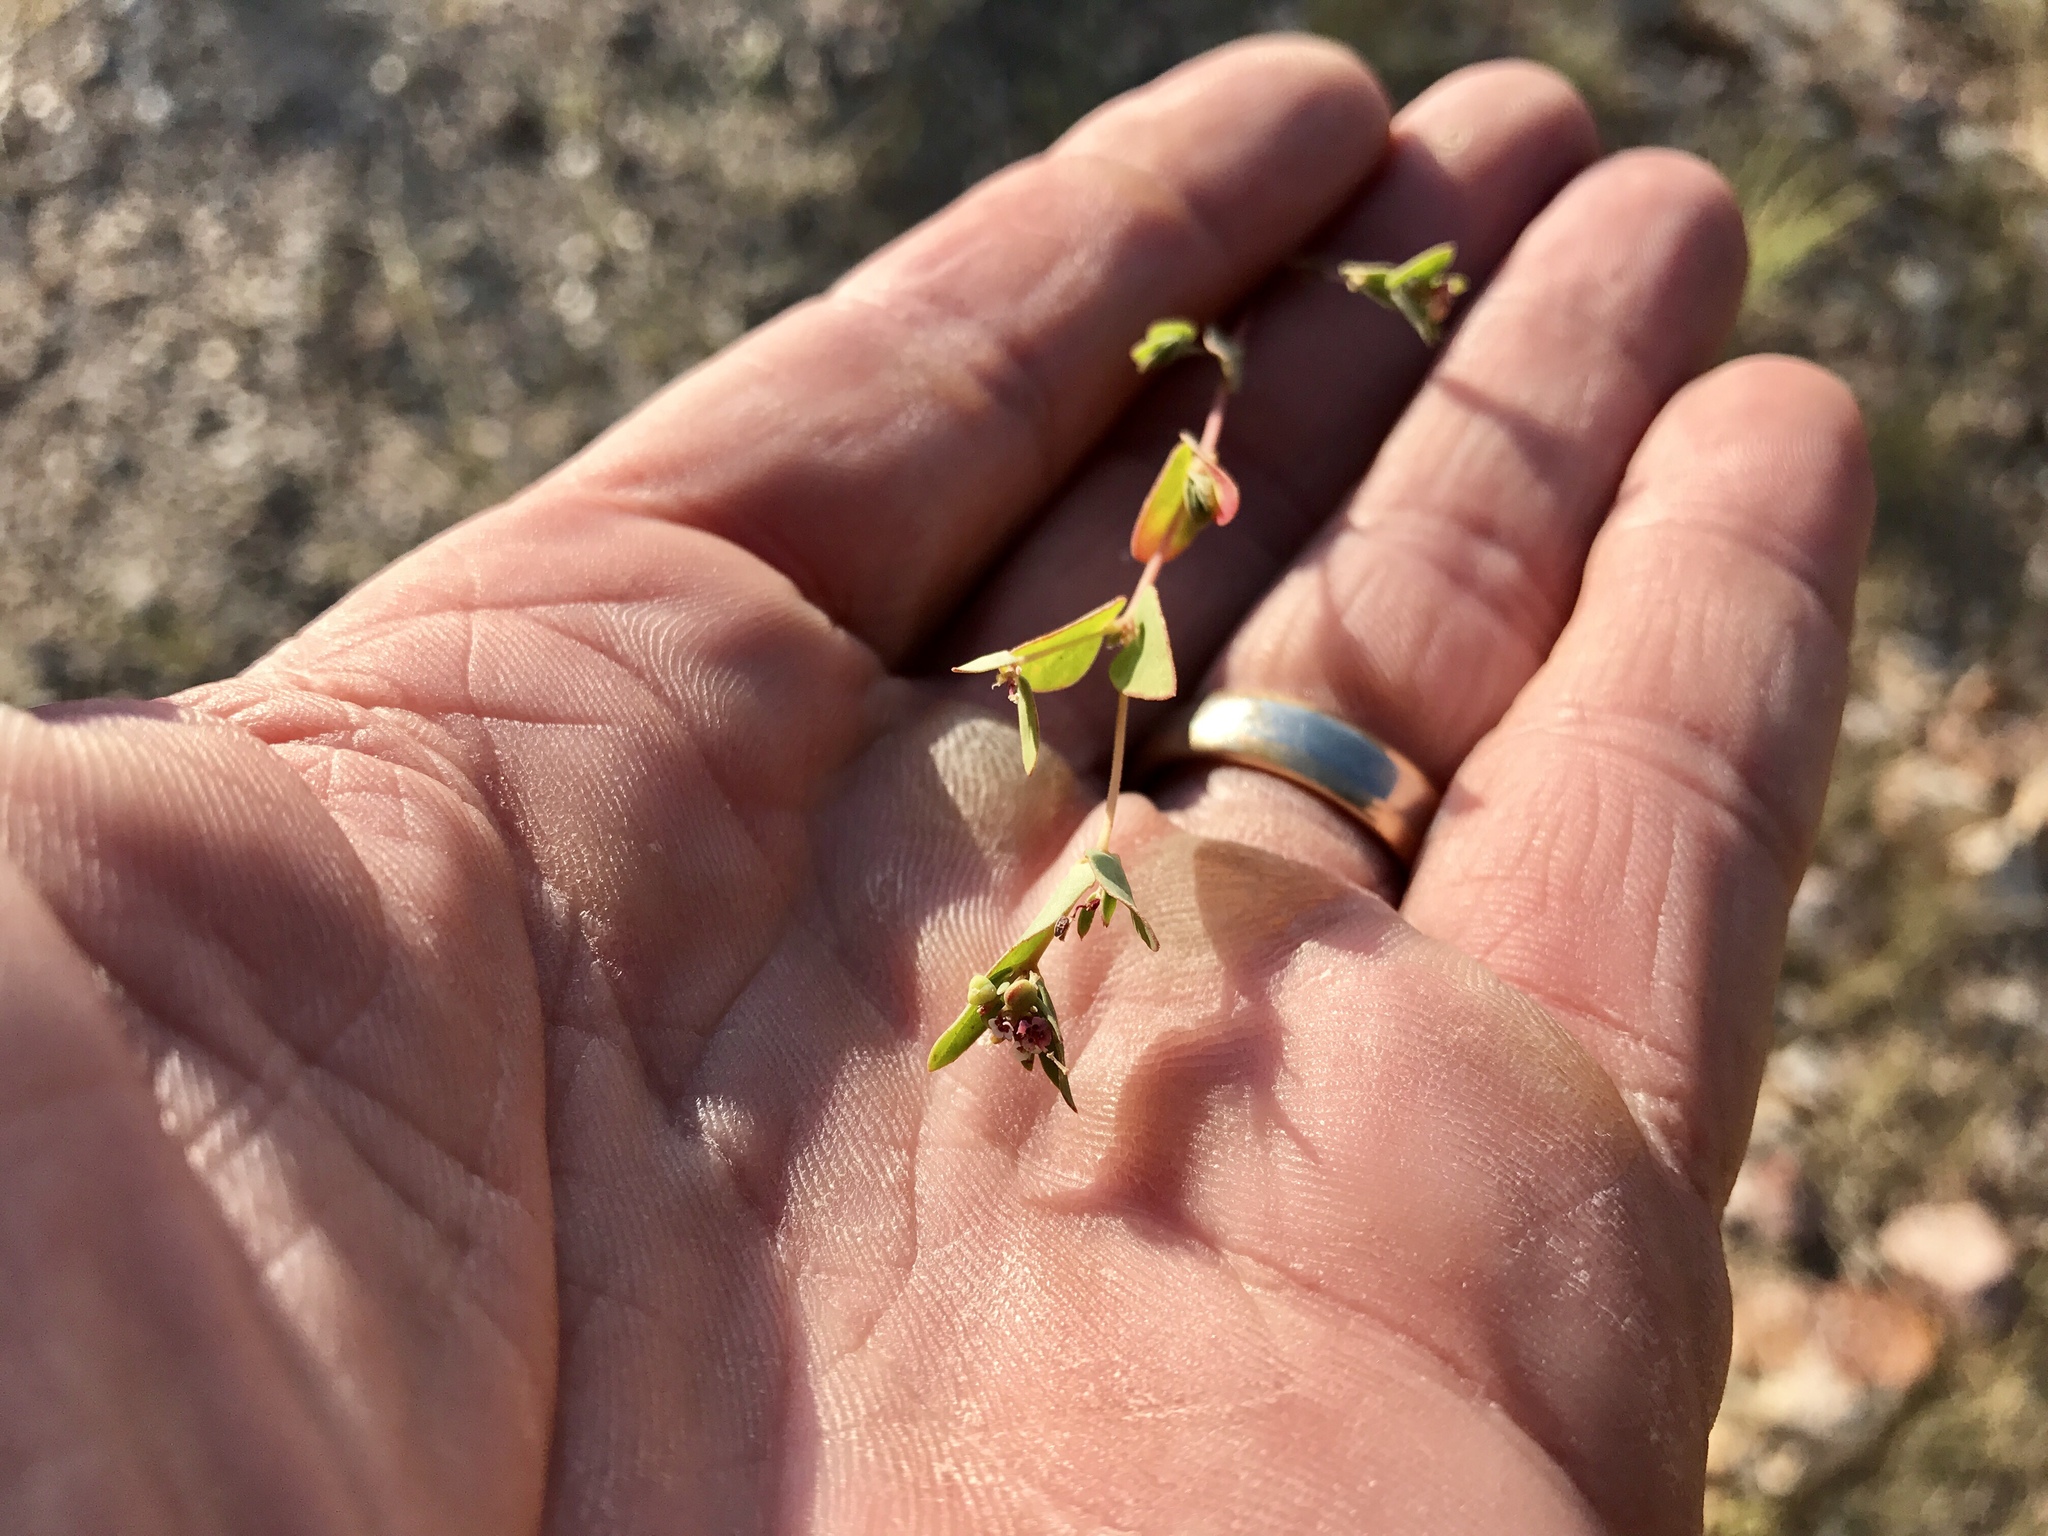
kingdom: Plantae
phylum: Tracheophyta
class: Magnoliopsida
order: Malpighiales
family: Euphorbiaceae
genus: Euphorbia
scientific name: Euphorbia capitellata
